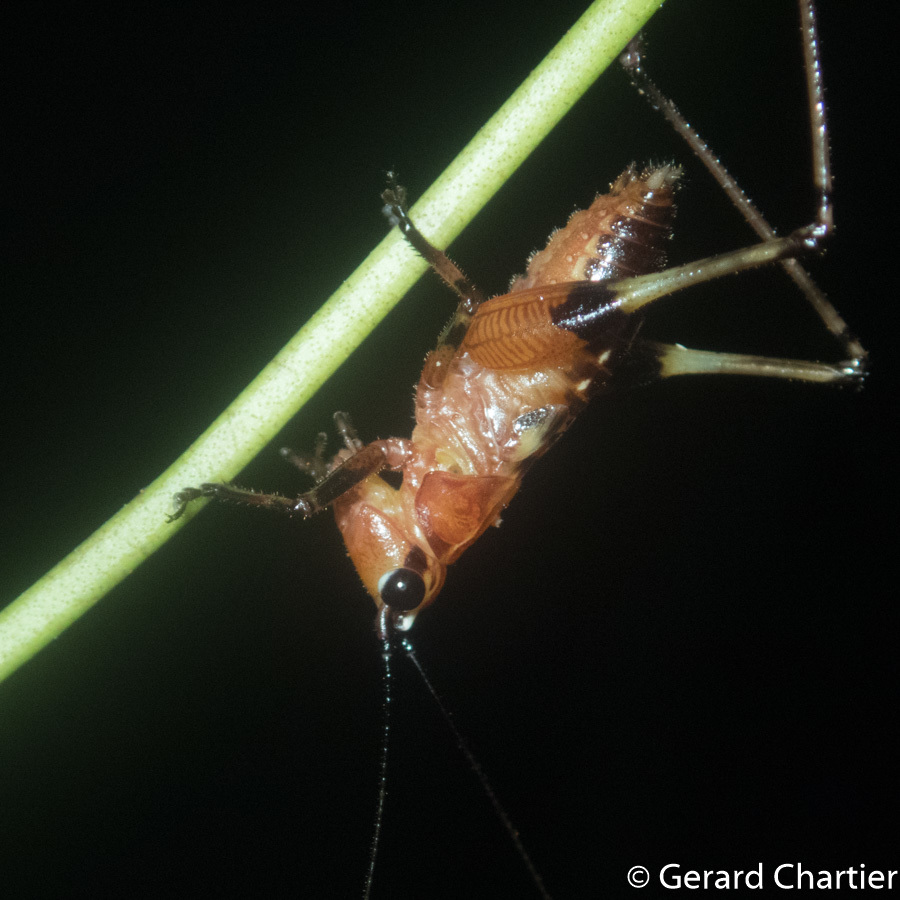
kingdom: Animalia
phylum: Arthropoda
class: Insecta
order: Orthoptera
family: Tettigoniidae
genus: Conocephalus
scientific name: Conocephalus melaenus
